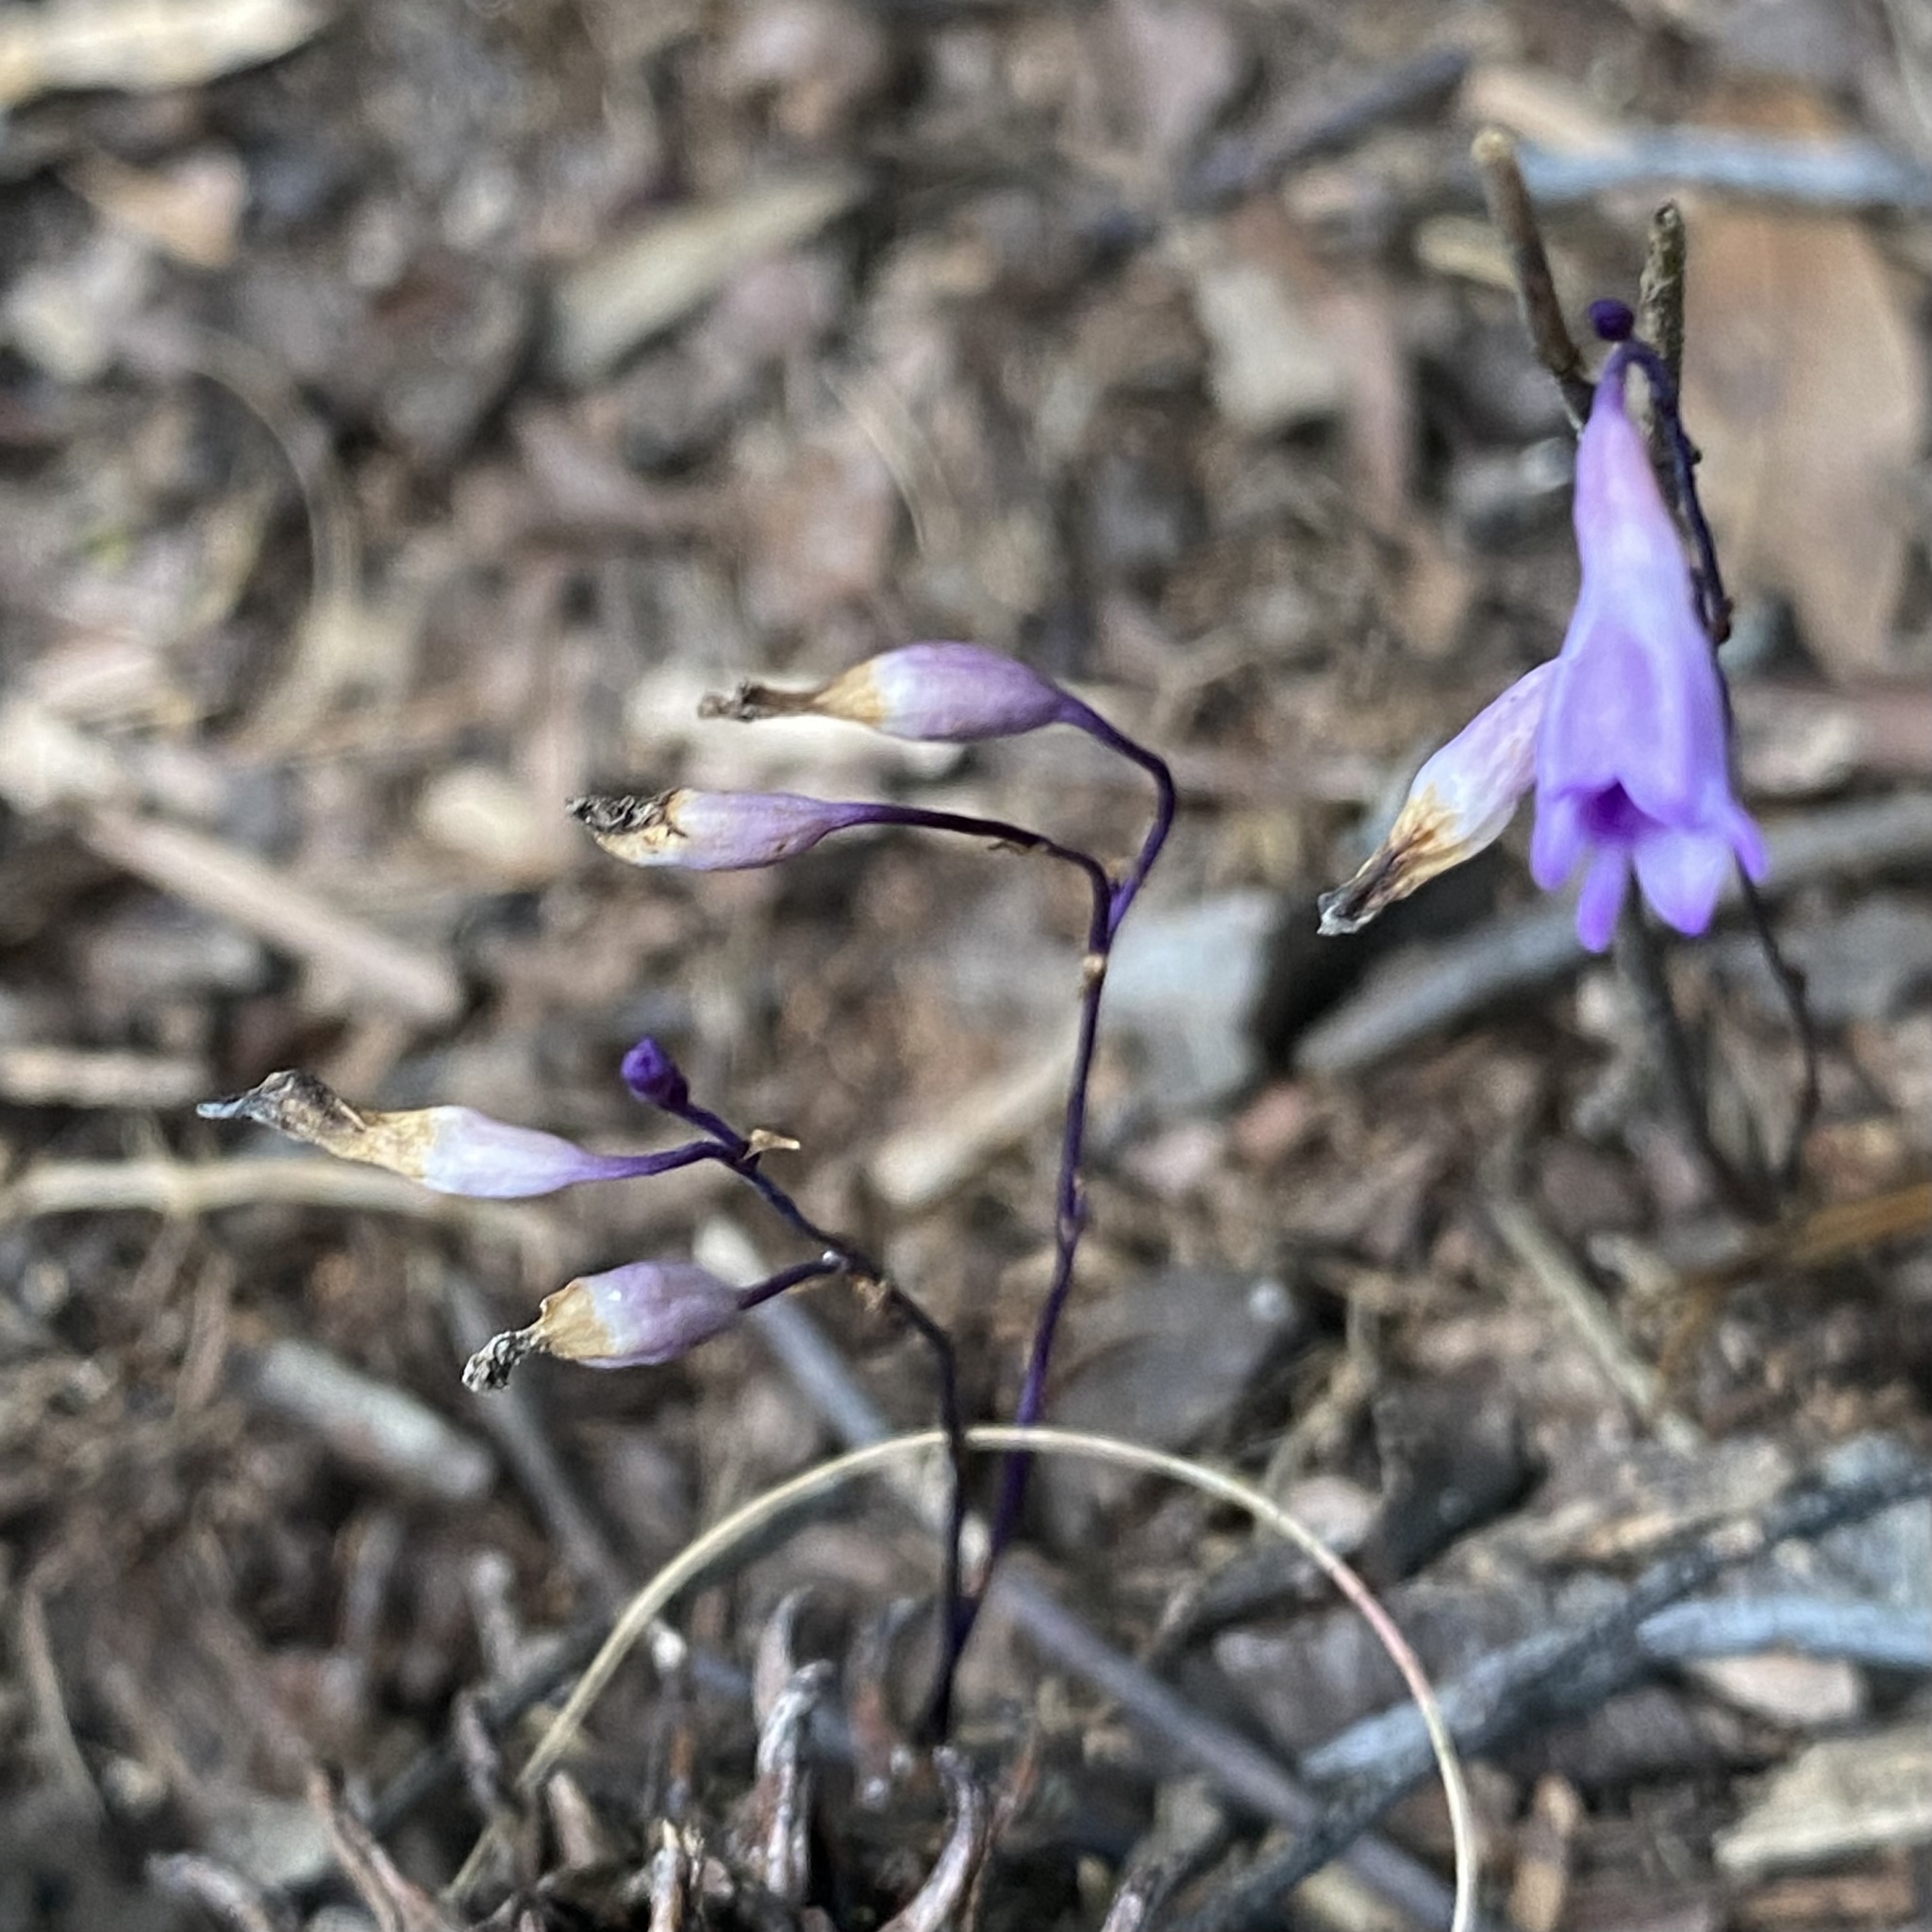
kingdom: Plantae
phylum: Tracheophyta
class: Liliopsida
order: Dioscoreales
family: Burmanniaceae
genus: Apteria
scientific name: Apteria aphylla
